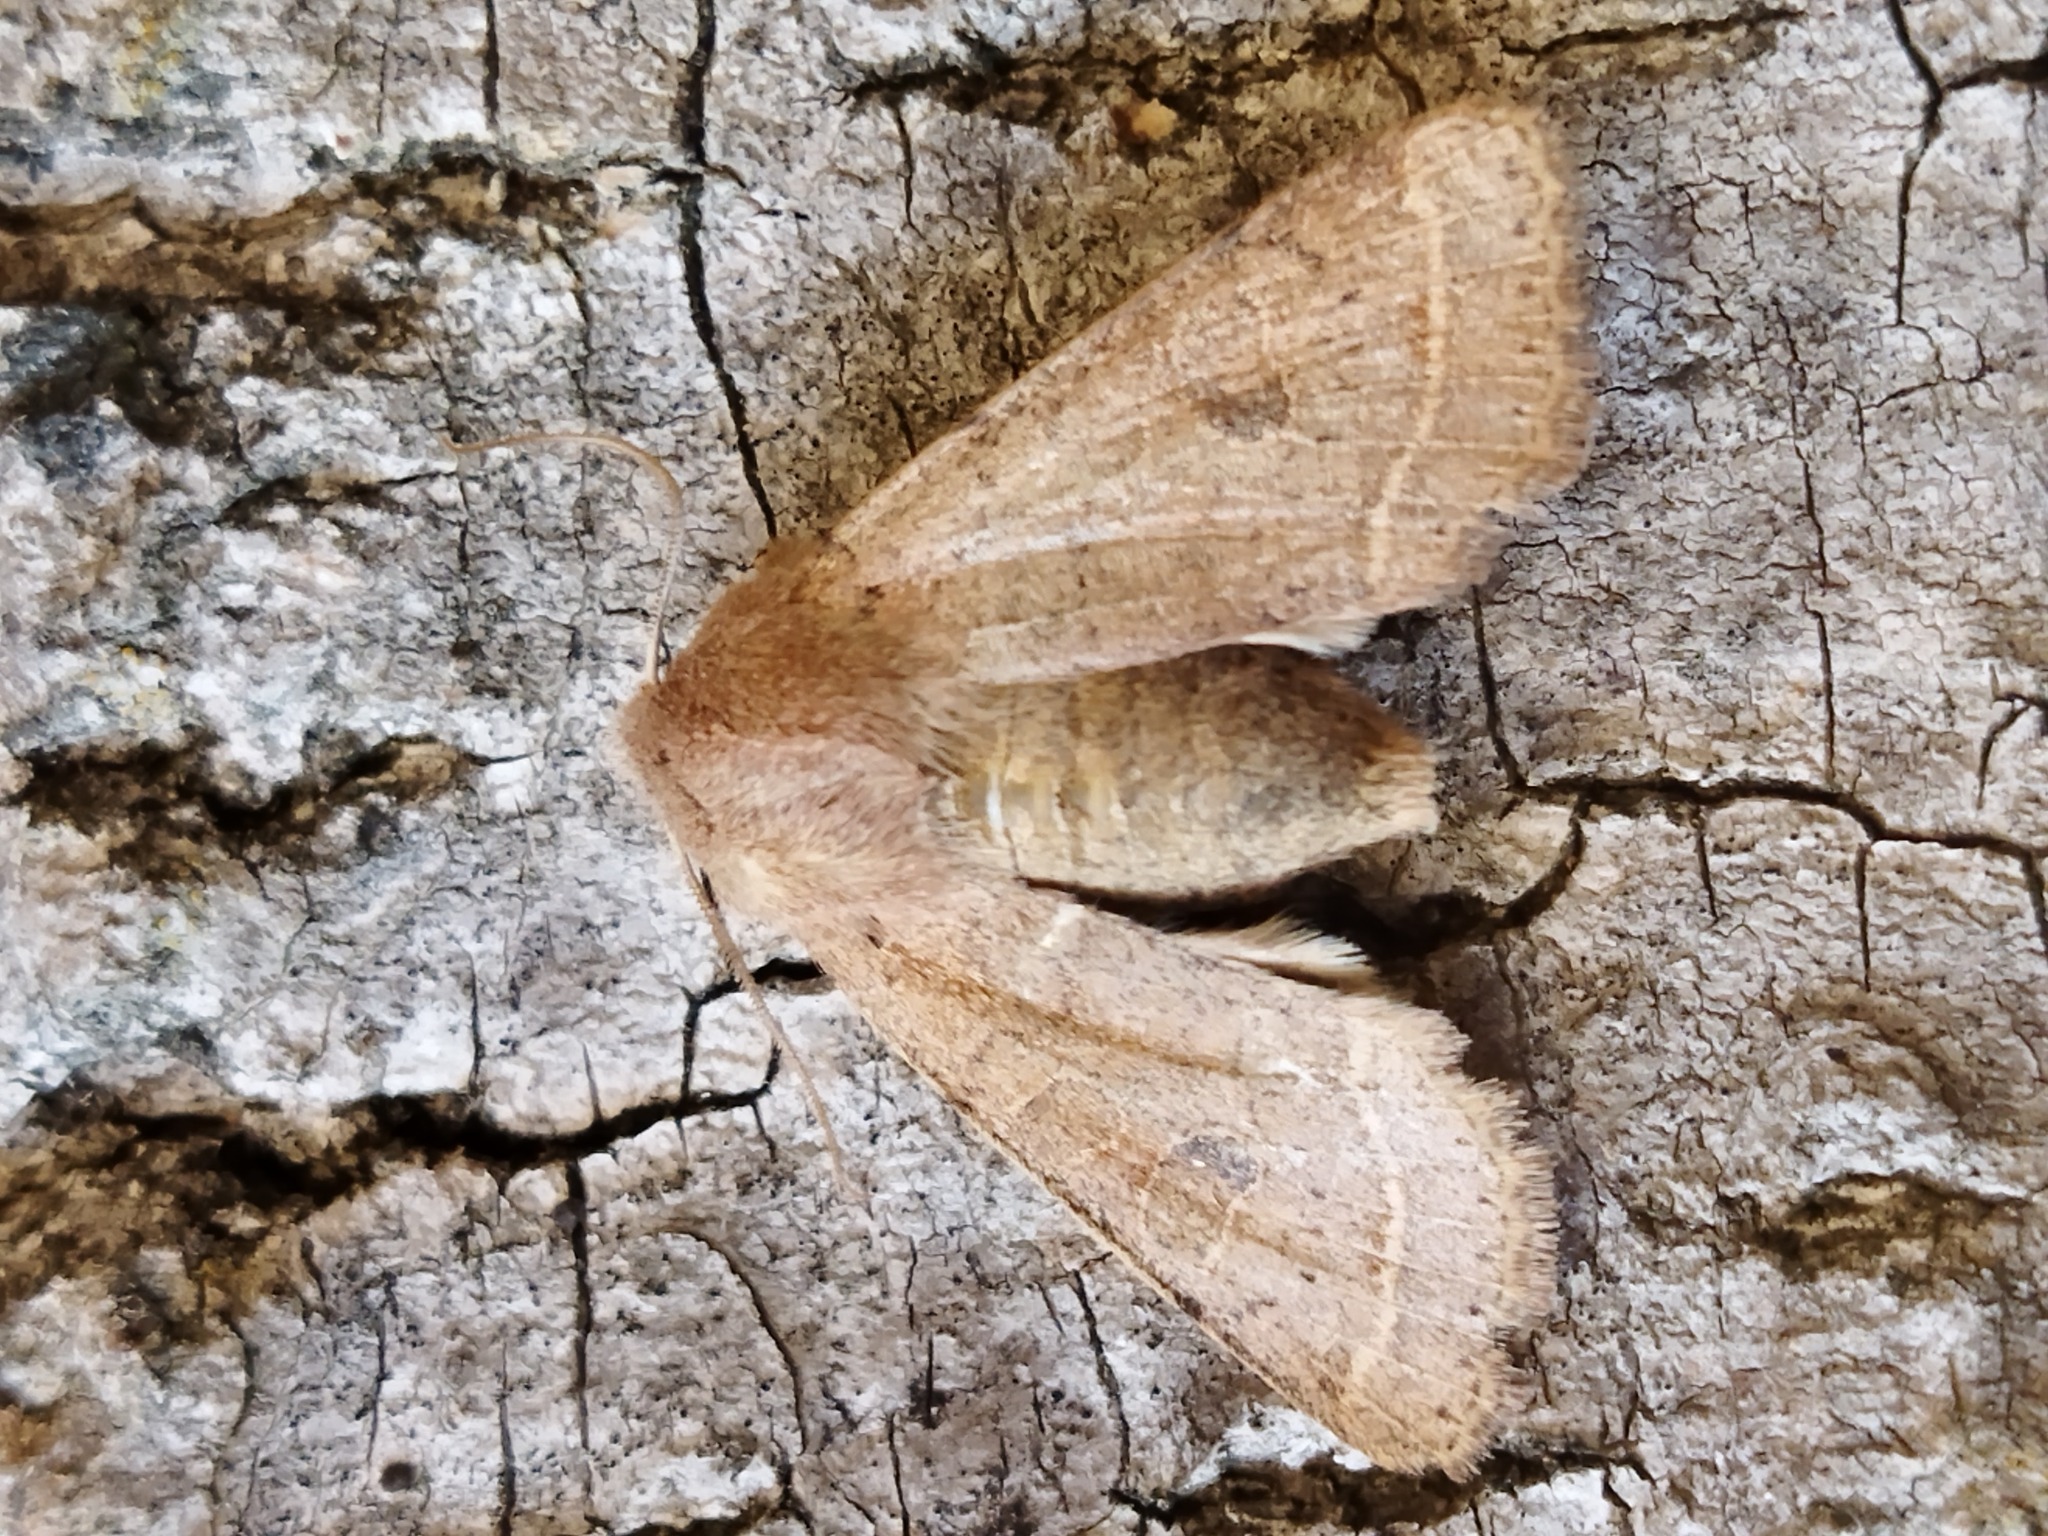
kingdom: Animalia
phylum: Arthropoda
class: Insecta
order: Lepidoptera
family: Noctuidae
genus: Orthosia
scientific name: Orthosia cerasi
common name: Common quaker
